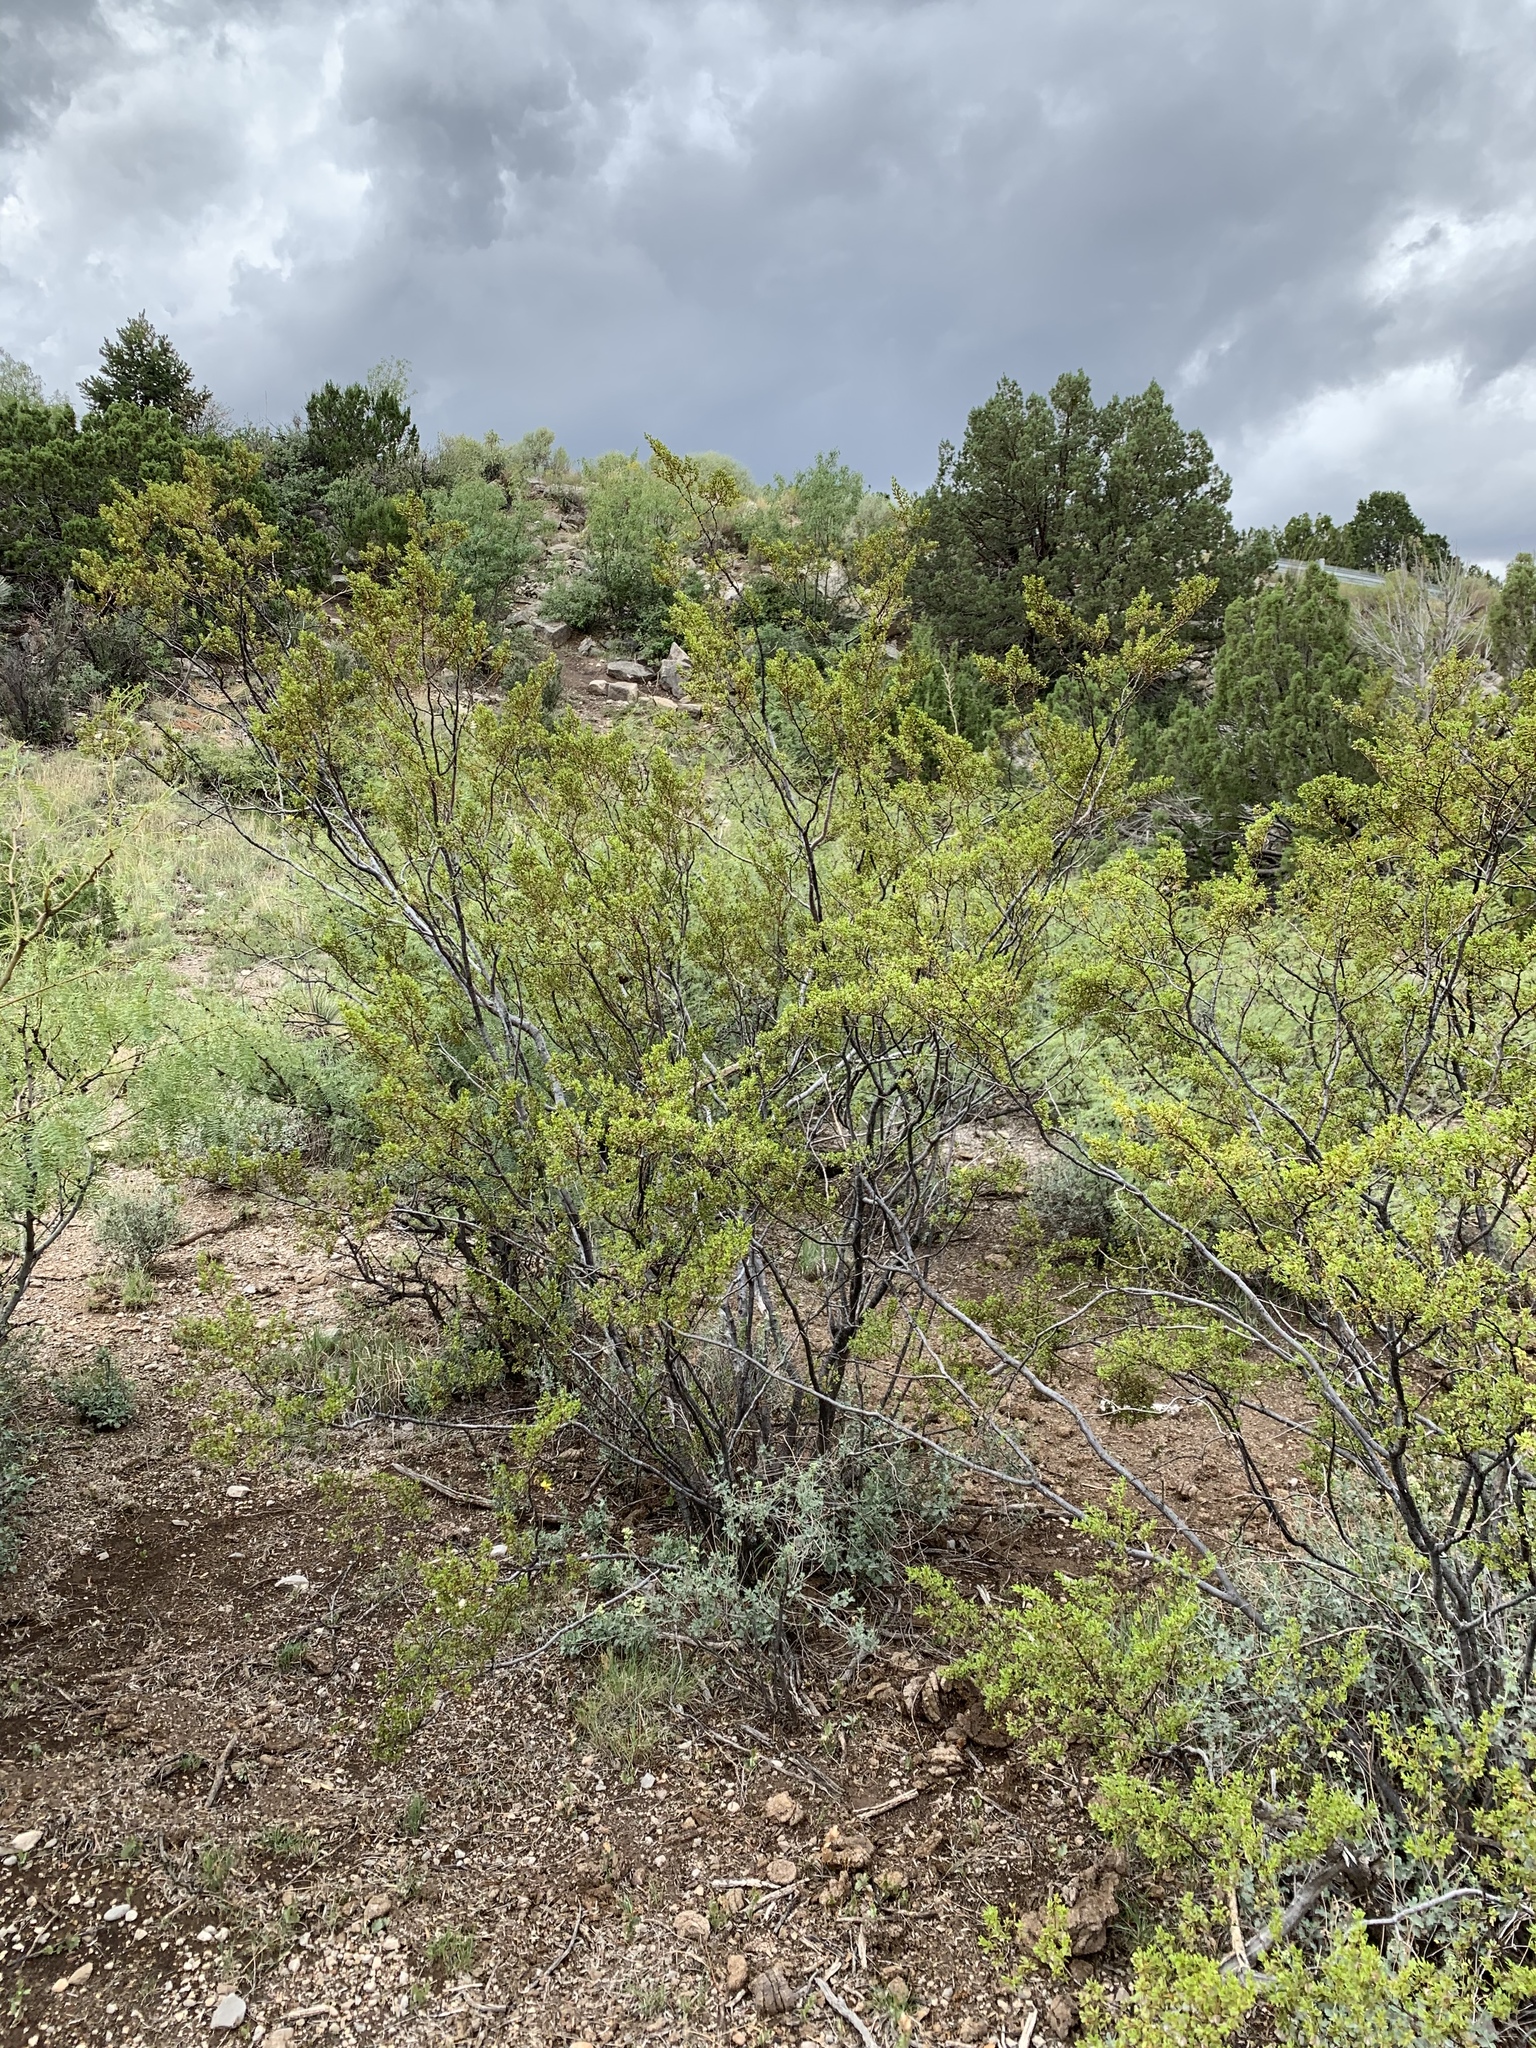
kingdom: Plantae
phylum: Tracheophyta
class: Magnoliopsida
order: Zygophyllales
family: Zygophyllaceae
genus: Larrea
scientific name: Larrea tridentata
